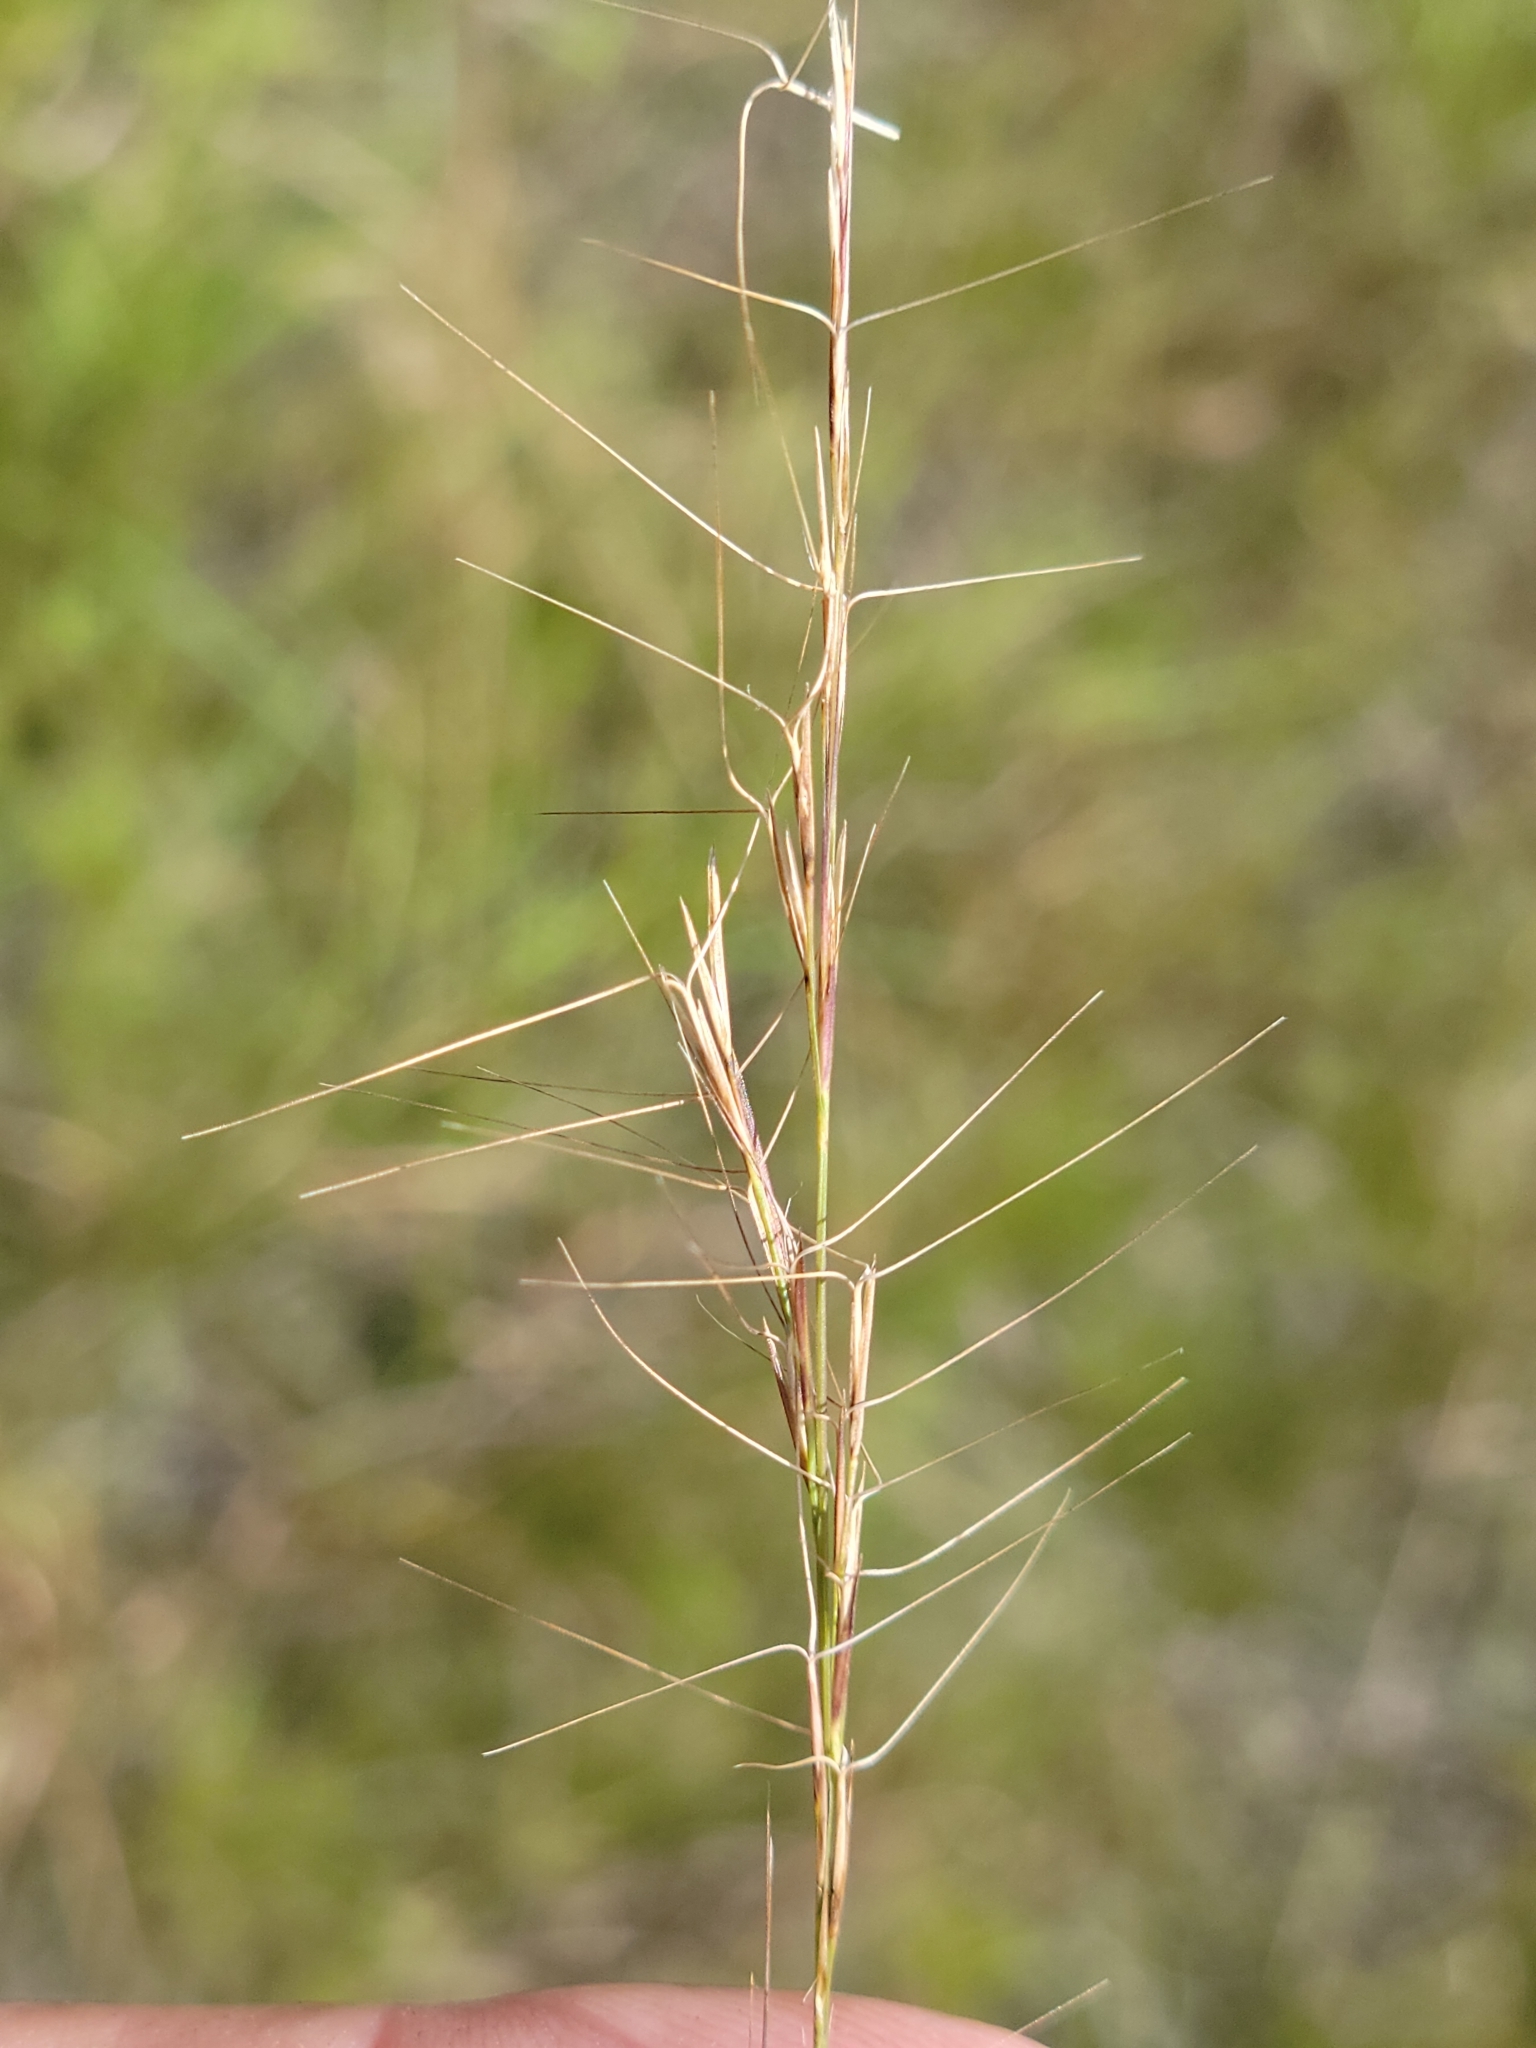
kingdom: Plantae
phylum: Tracheophyta
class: Liliopsida
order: Poales
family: Poaceae
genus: Aristida
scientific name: Aristida purpurascens
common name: Arrow-feather
